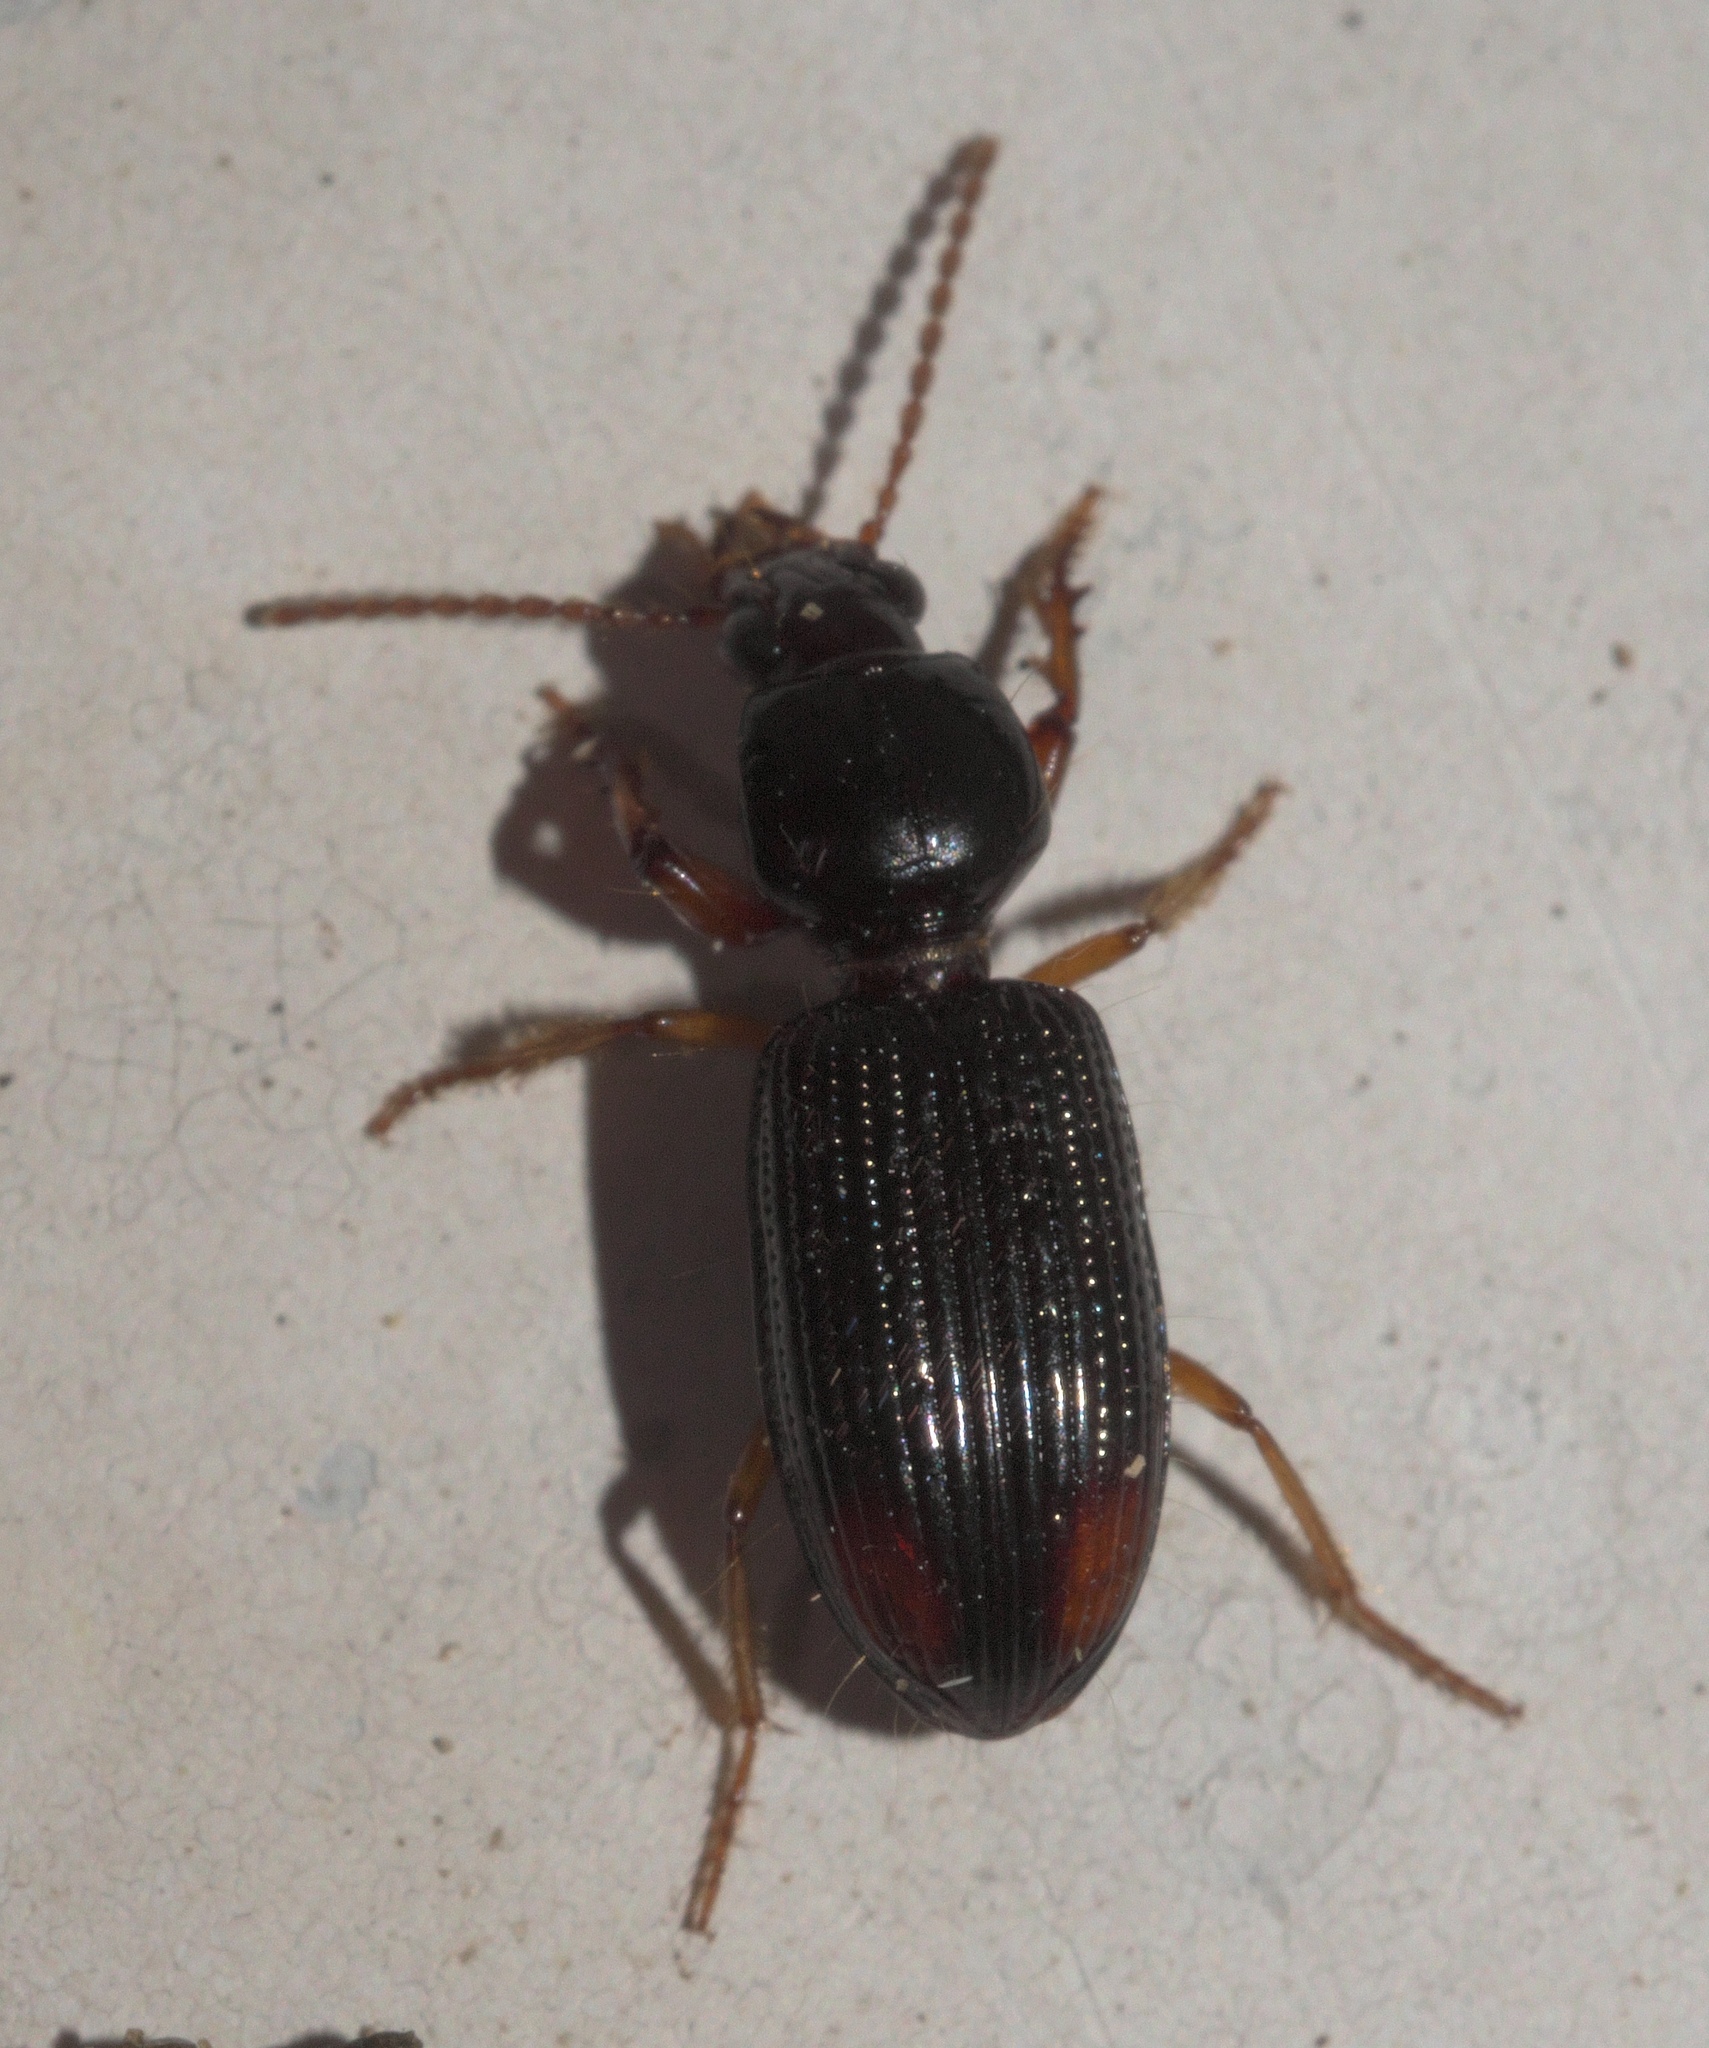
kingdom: Animalia
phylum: Arthropoda
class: Insecta
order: Coleoptera
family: Carabidae
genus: Aspidoglossa
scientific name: Aspidoglossa subangulata
